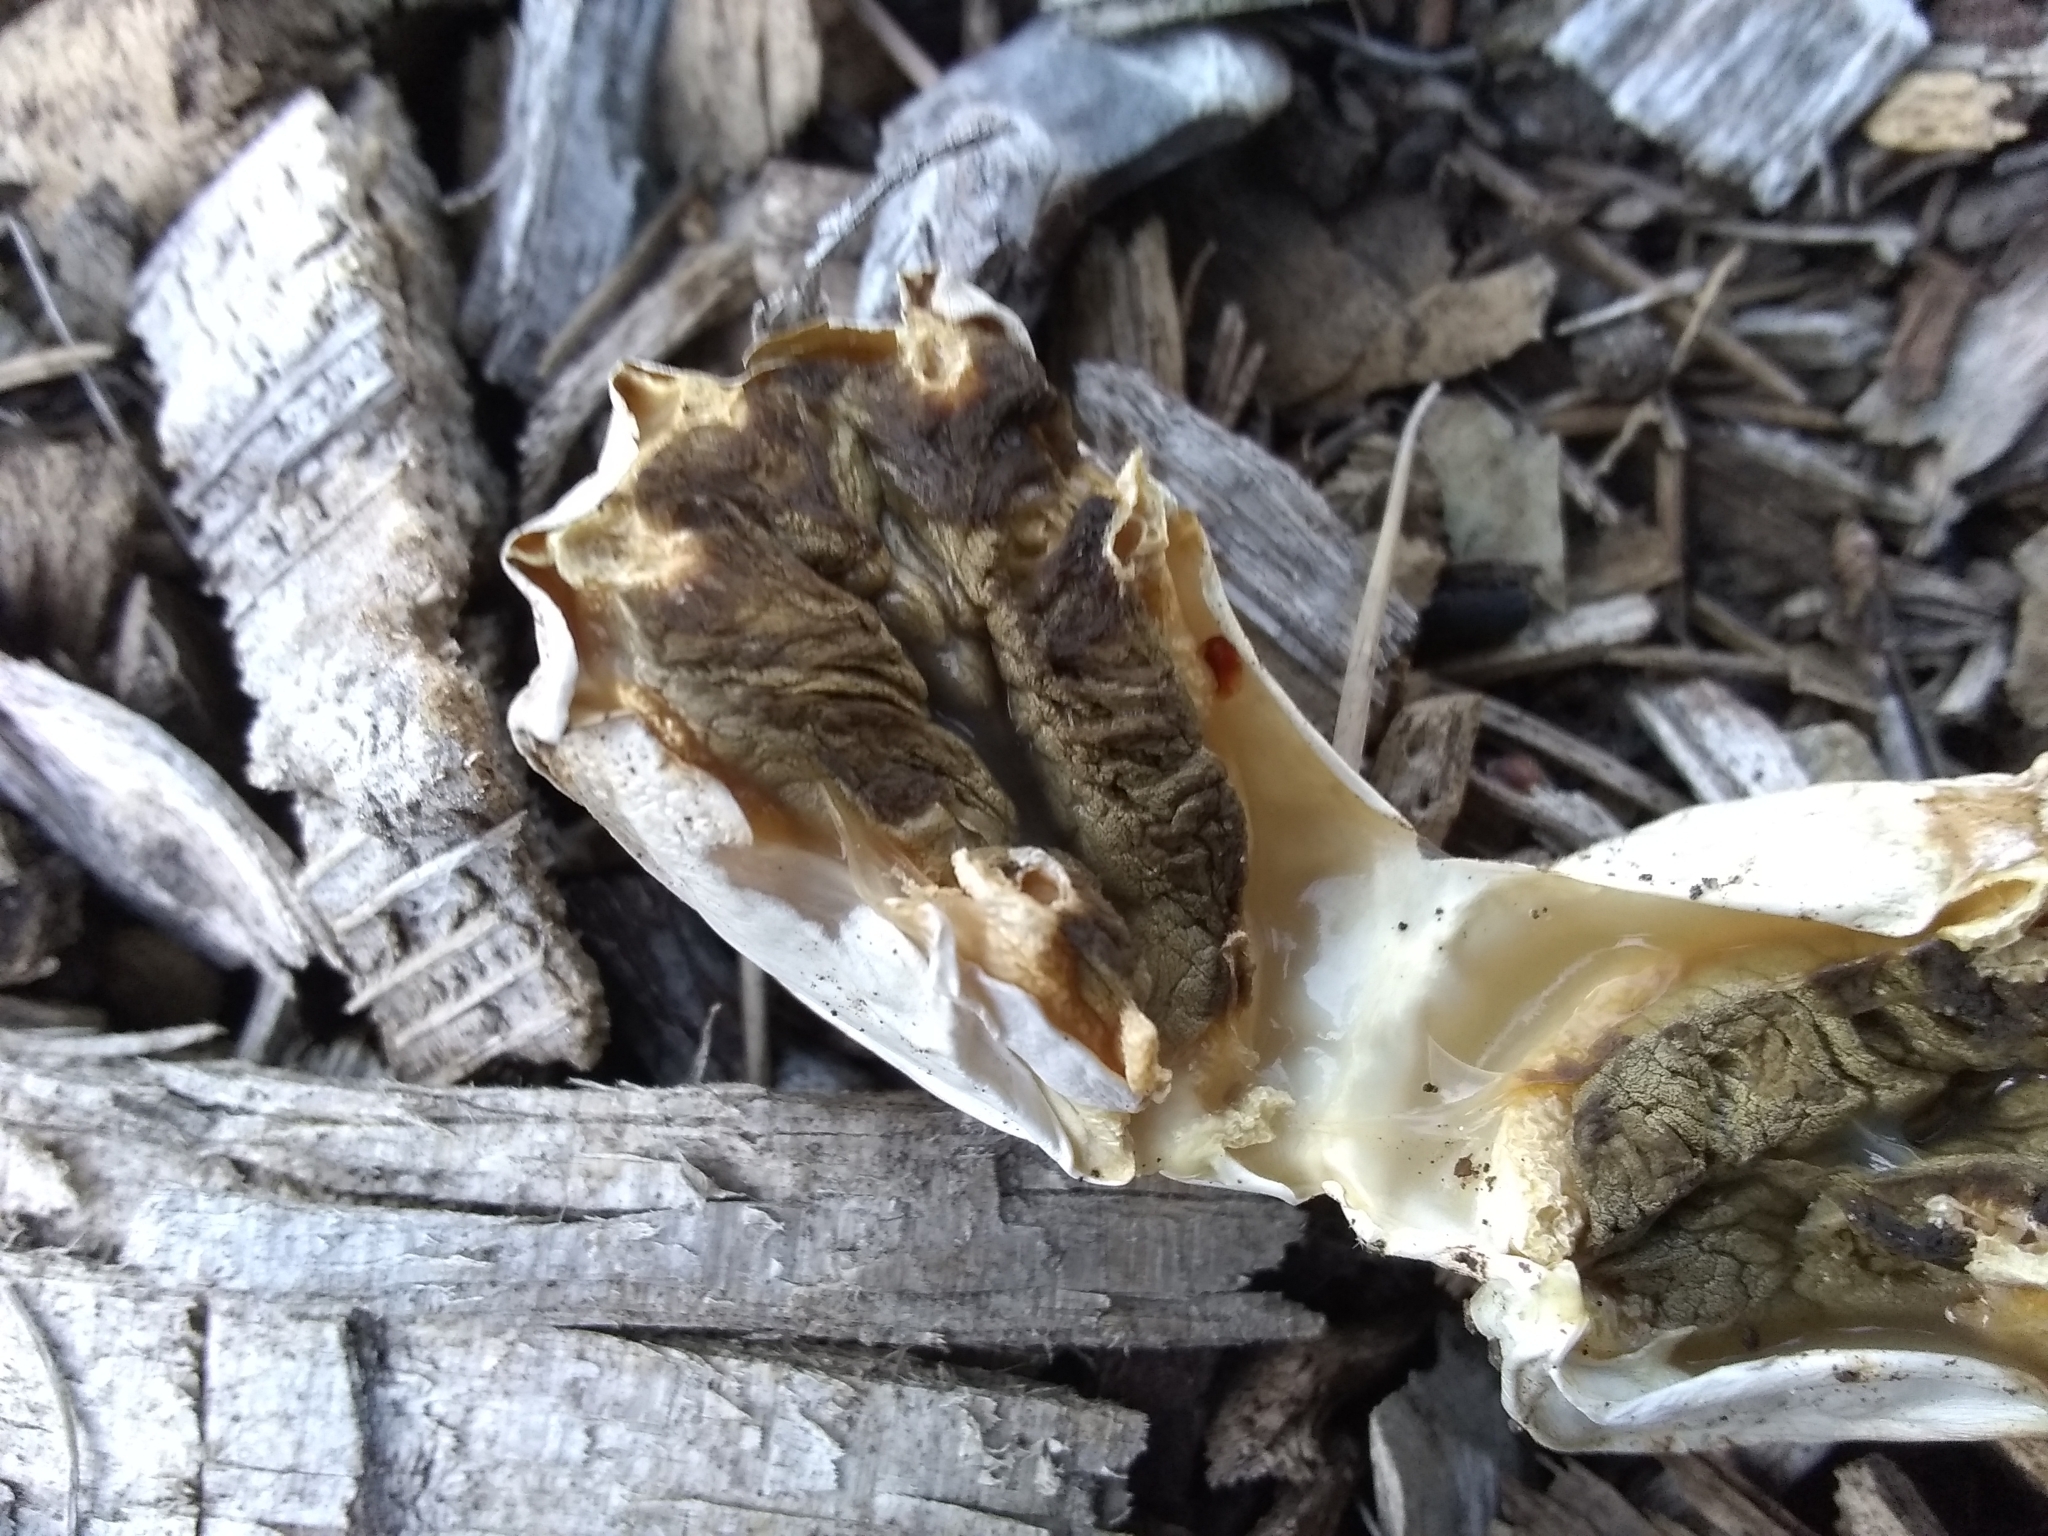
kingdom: Fungi
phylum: Basidiomycota
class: Agaricomycetes
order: Phallales
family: Phallaceae
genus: Clathrus
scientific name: Clathrus ruber
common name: Red cage
